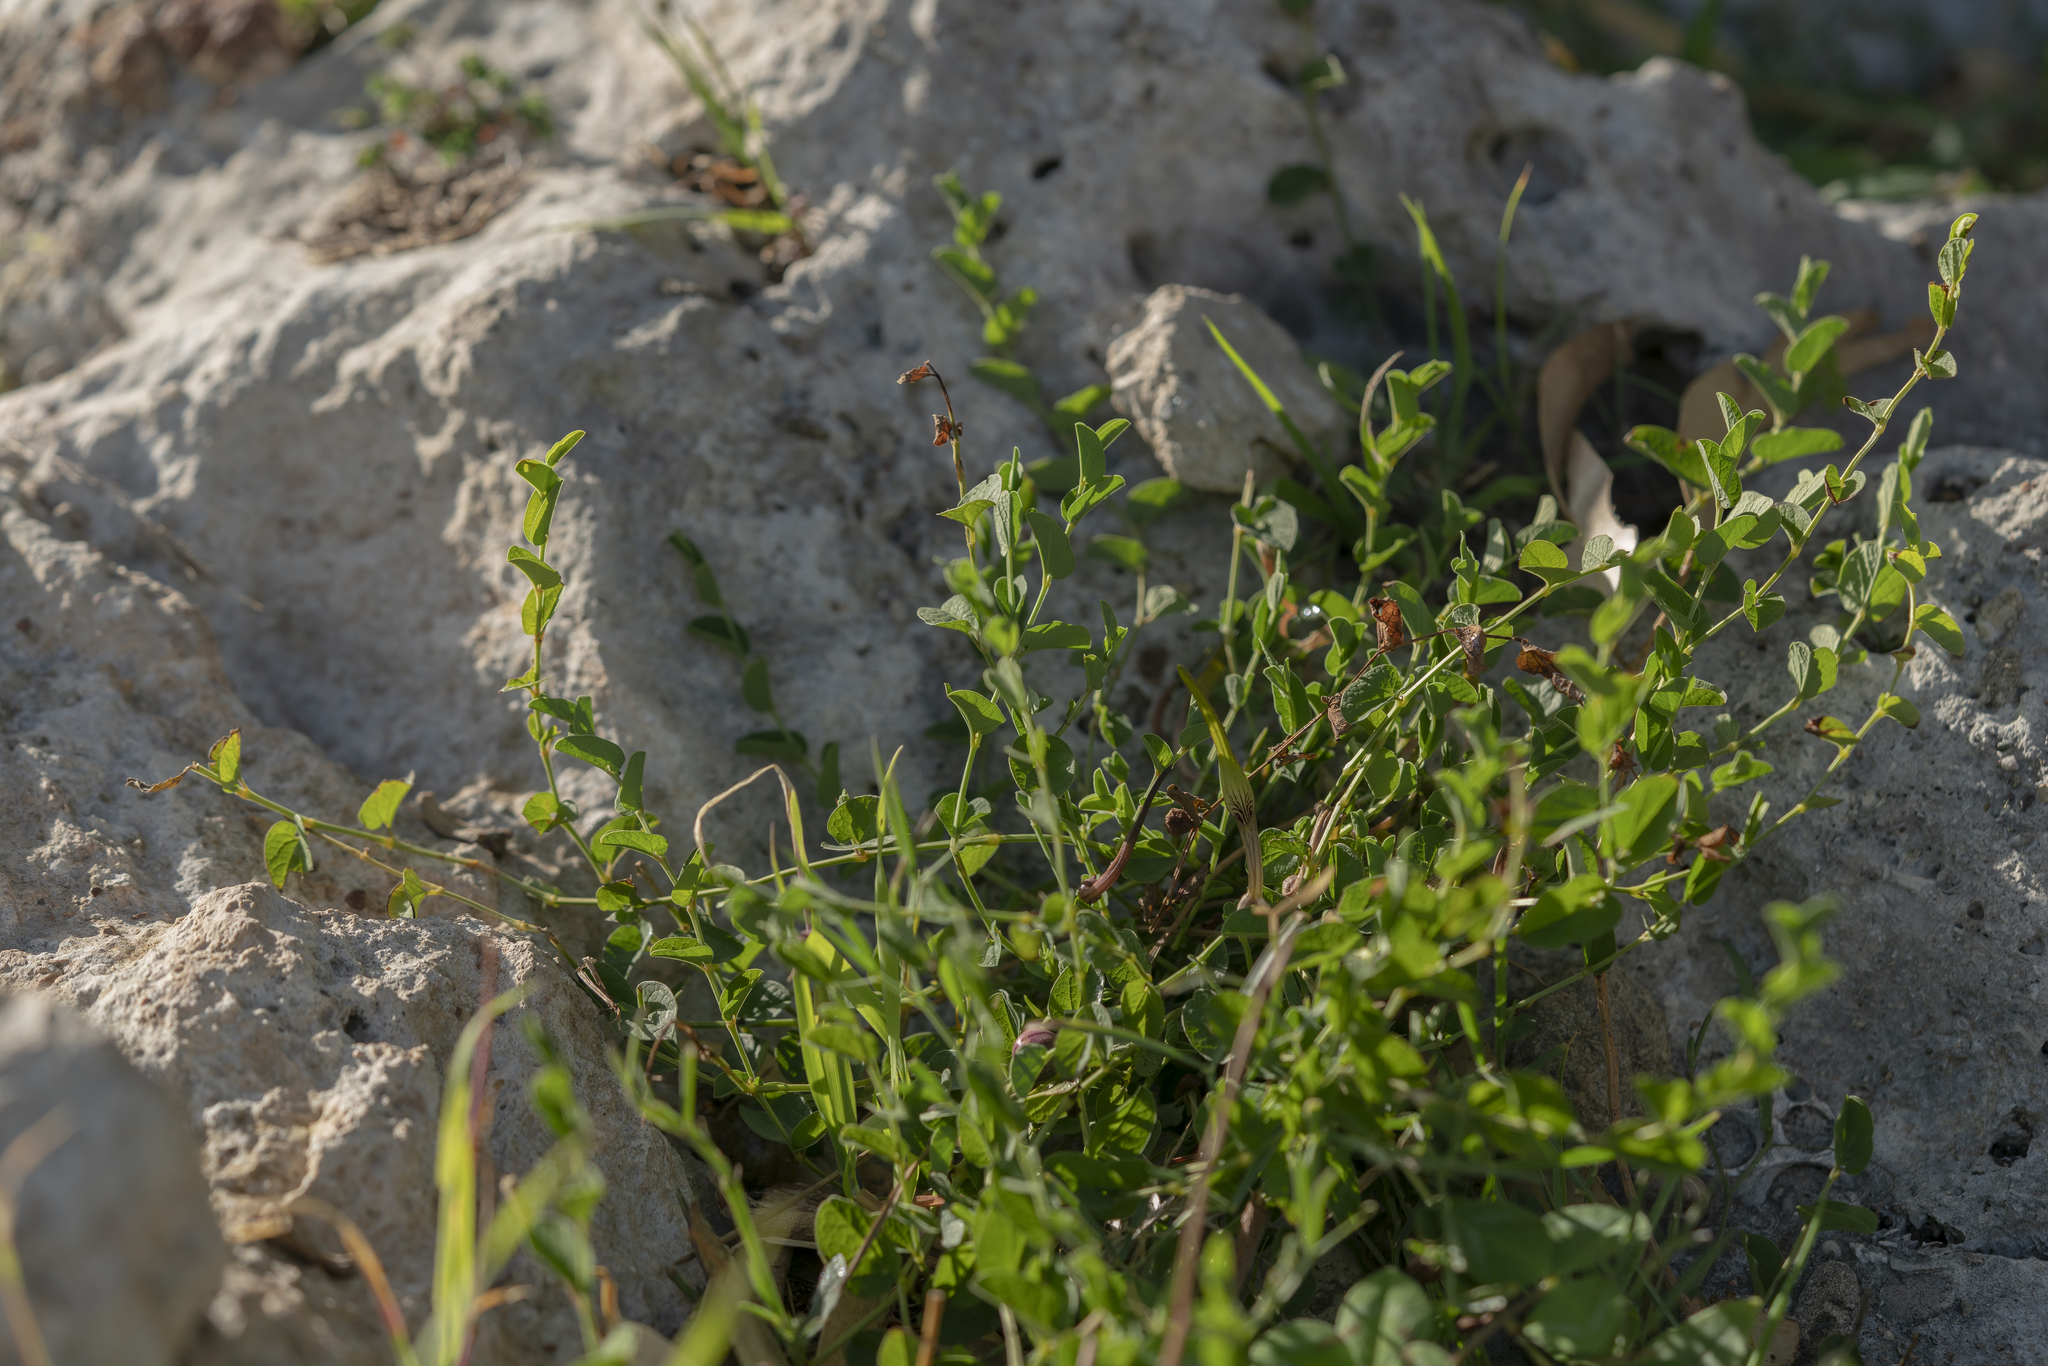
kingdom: Plantae
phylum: Tracheophyta
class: Magnoliopsida
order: Piperales
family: Aristolochiaceae
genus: Aristolochia
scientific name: Aristolochia parvifolia
